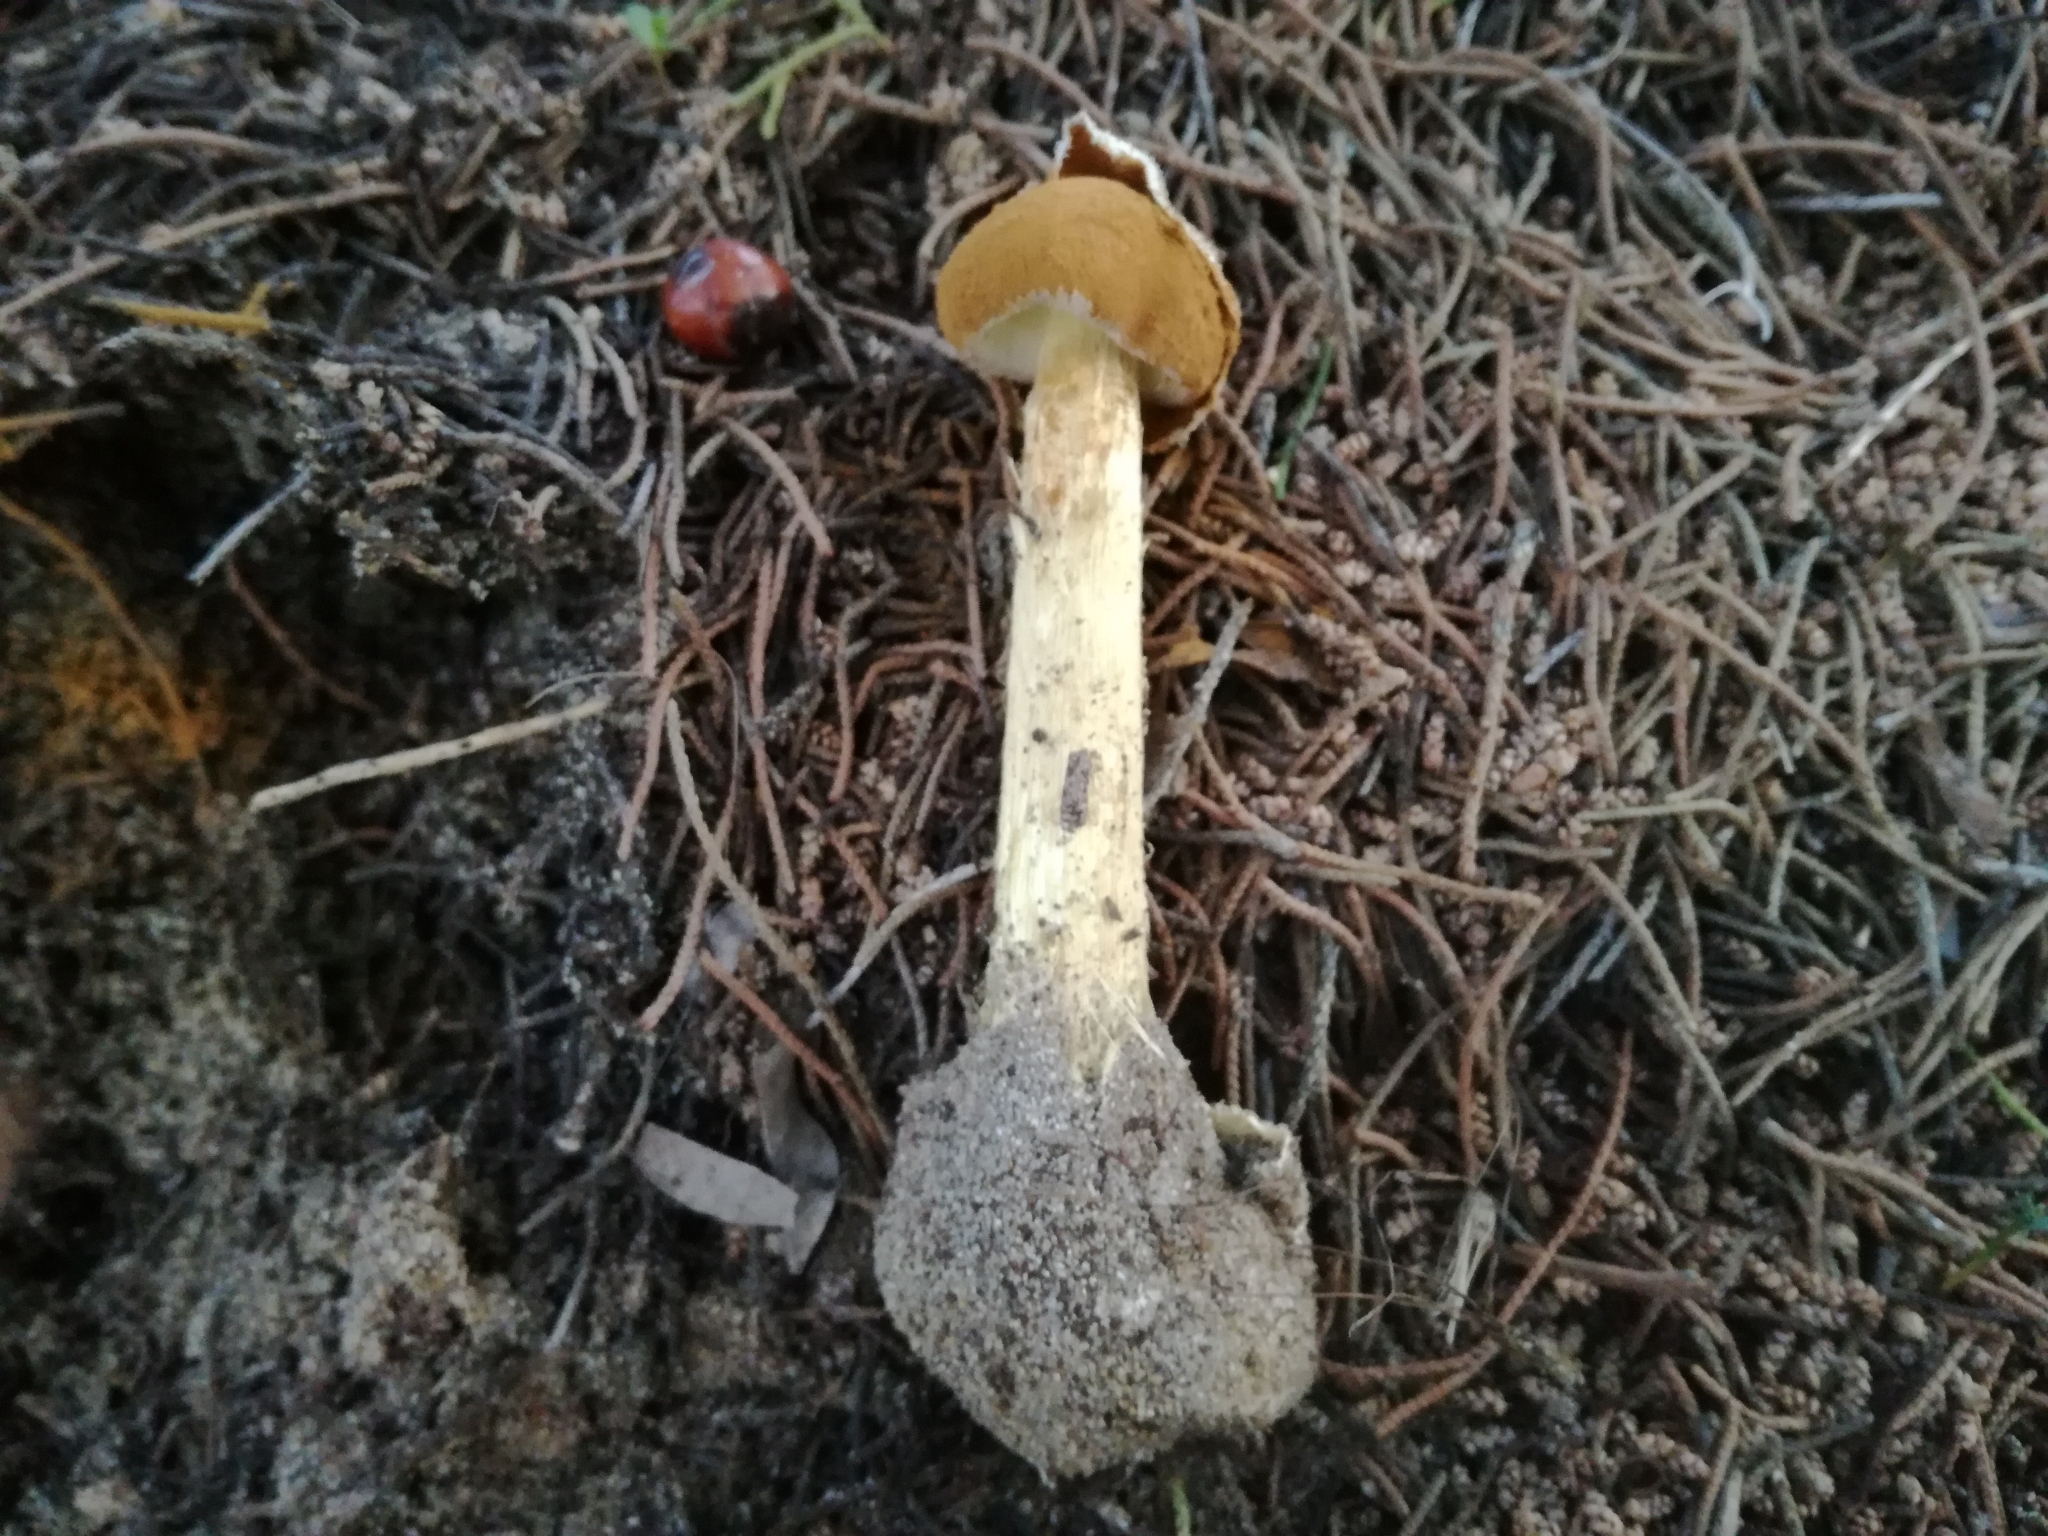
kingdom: Fungi
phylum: Basidiomycota
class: Agaricomycetes
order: Agaricales
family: Agaricaceae
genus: Battarrea
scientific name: Battarrea phalloides
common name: Sandy stiltball
